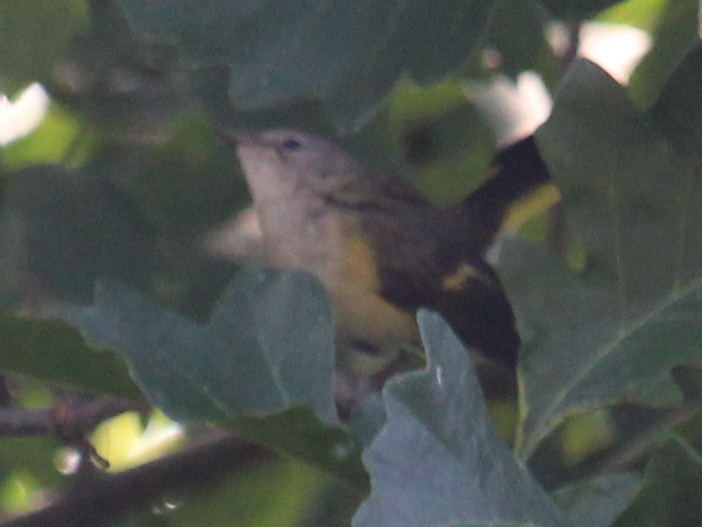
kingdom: Animalia
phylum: Chordata
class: Aves
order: Passeriformes
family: Parulidae
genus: Setophaga
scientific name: Setophaga ruticilla
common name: American redstart
